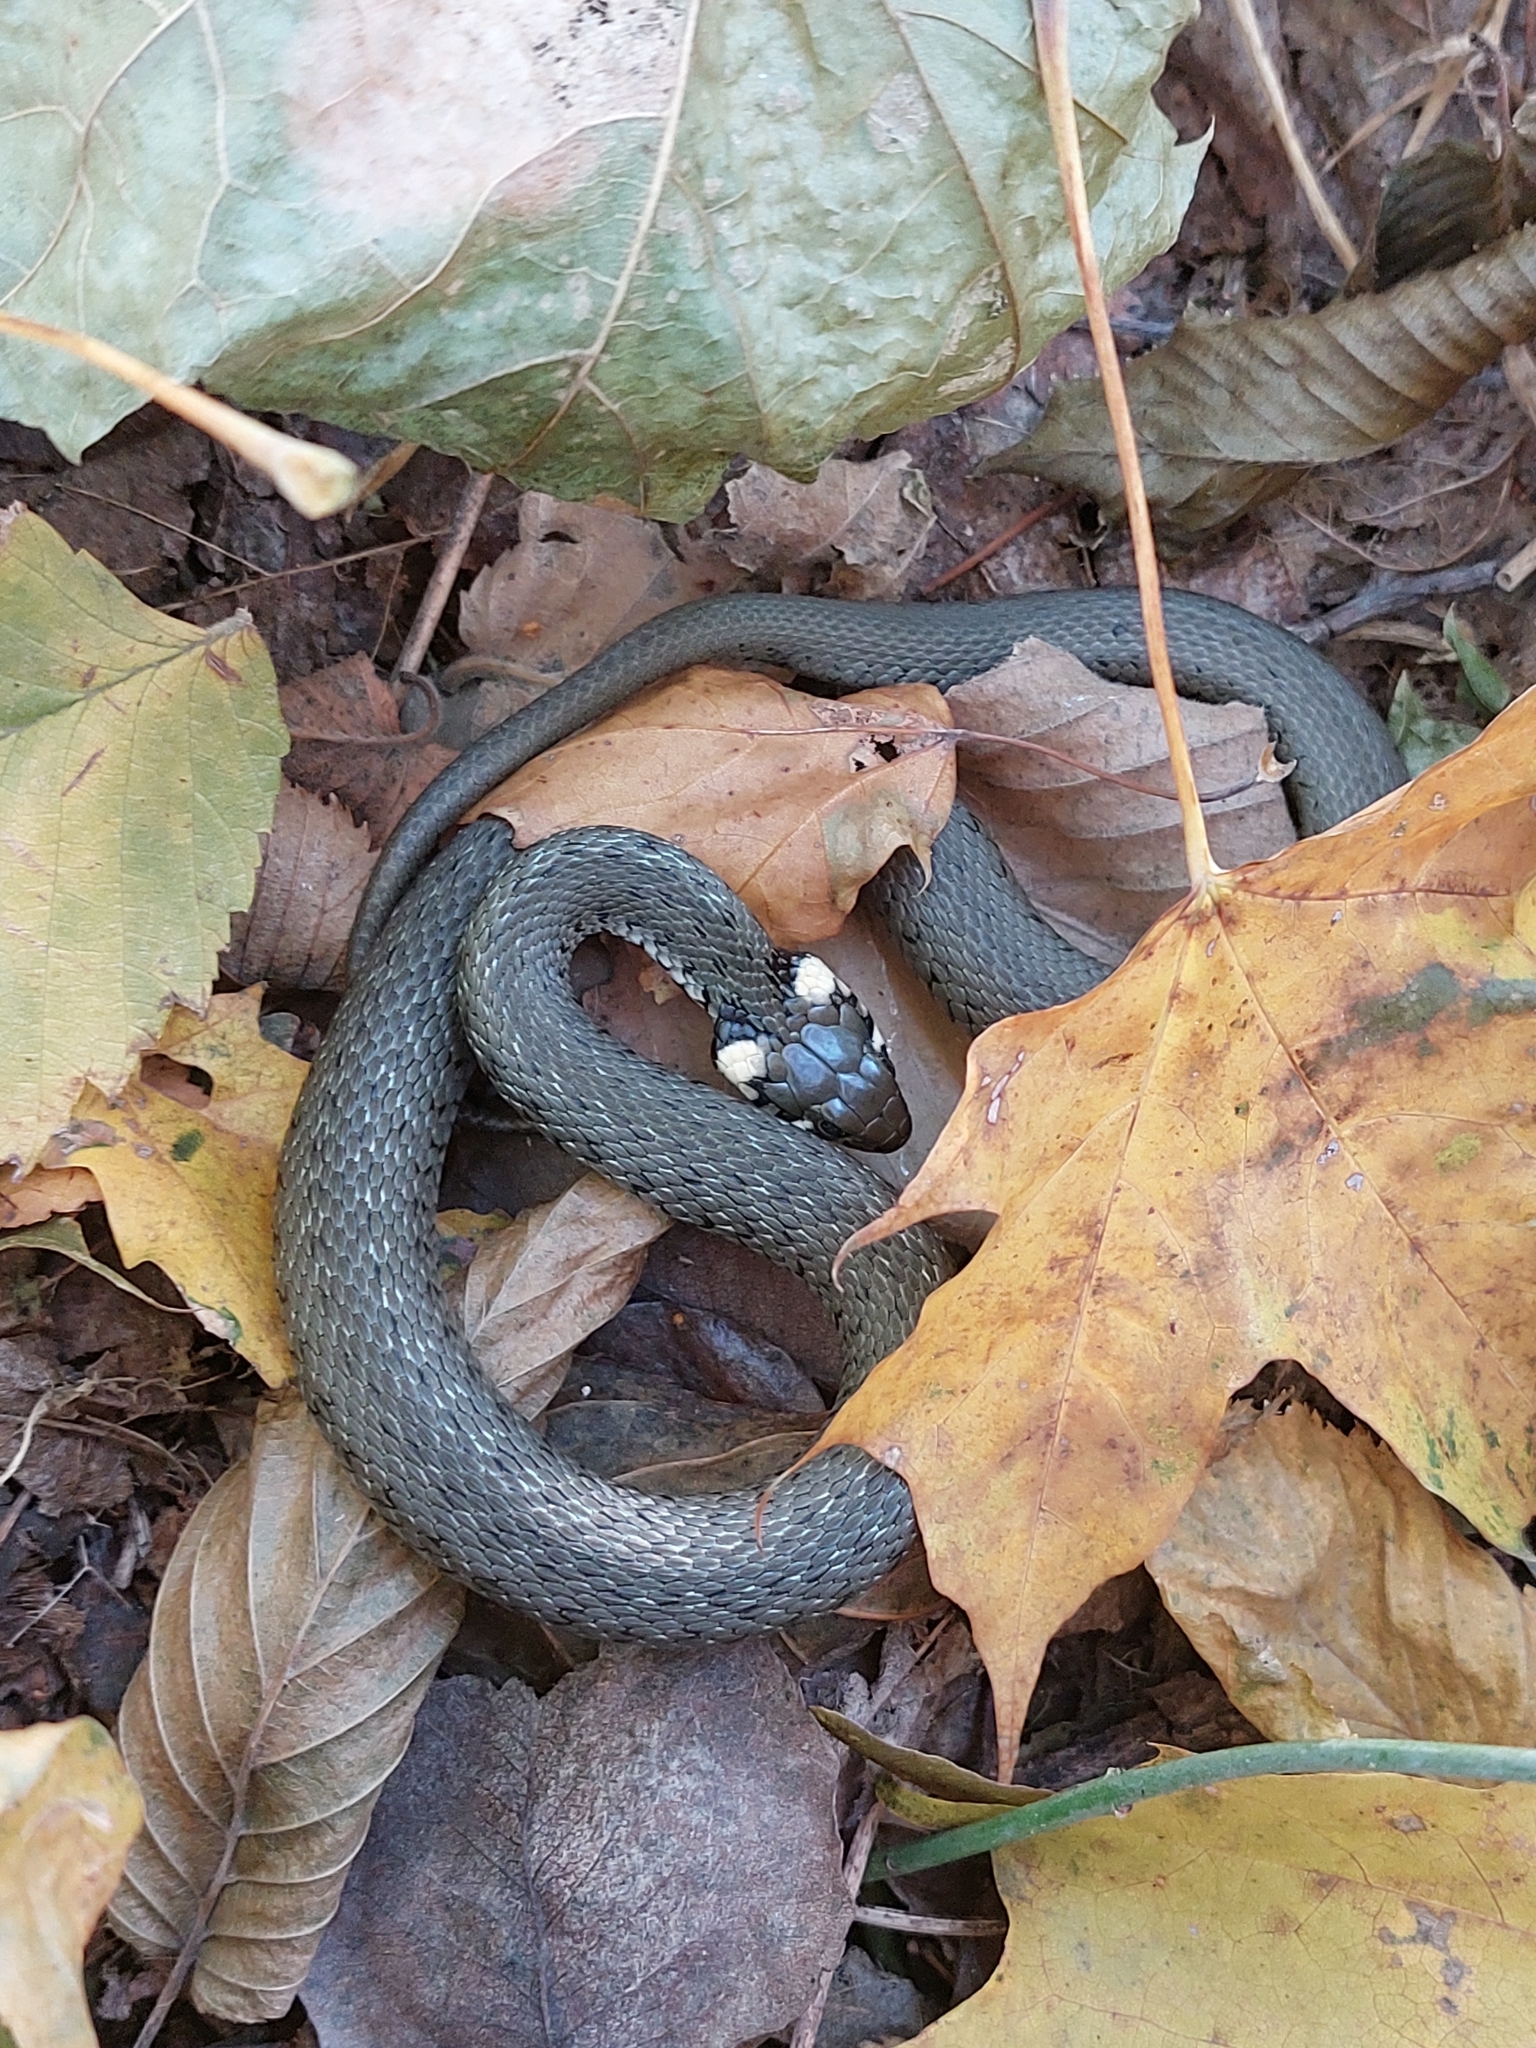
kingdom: Animalia
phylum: Chordata
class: Squamata
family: Colubridae
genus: Natrix
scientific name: Natrix natrix
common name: Grass snake
